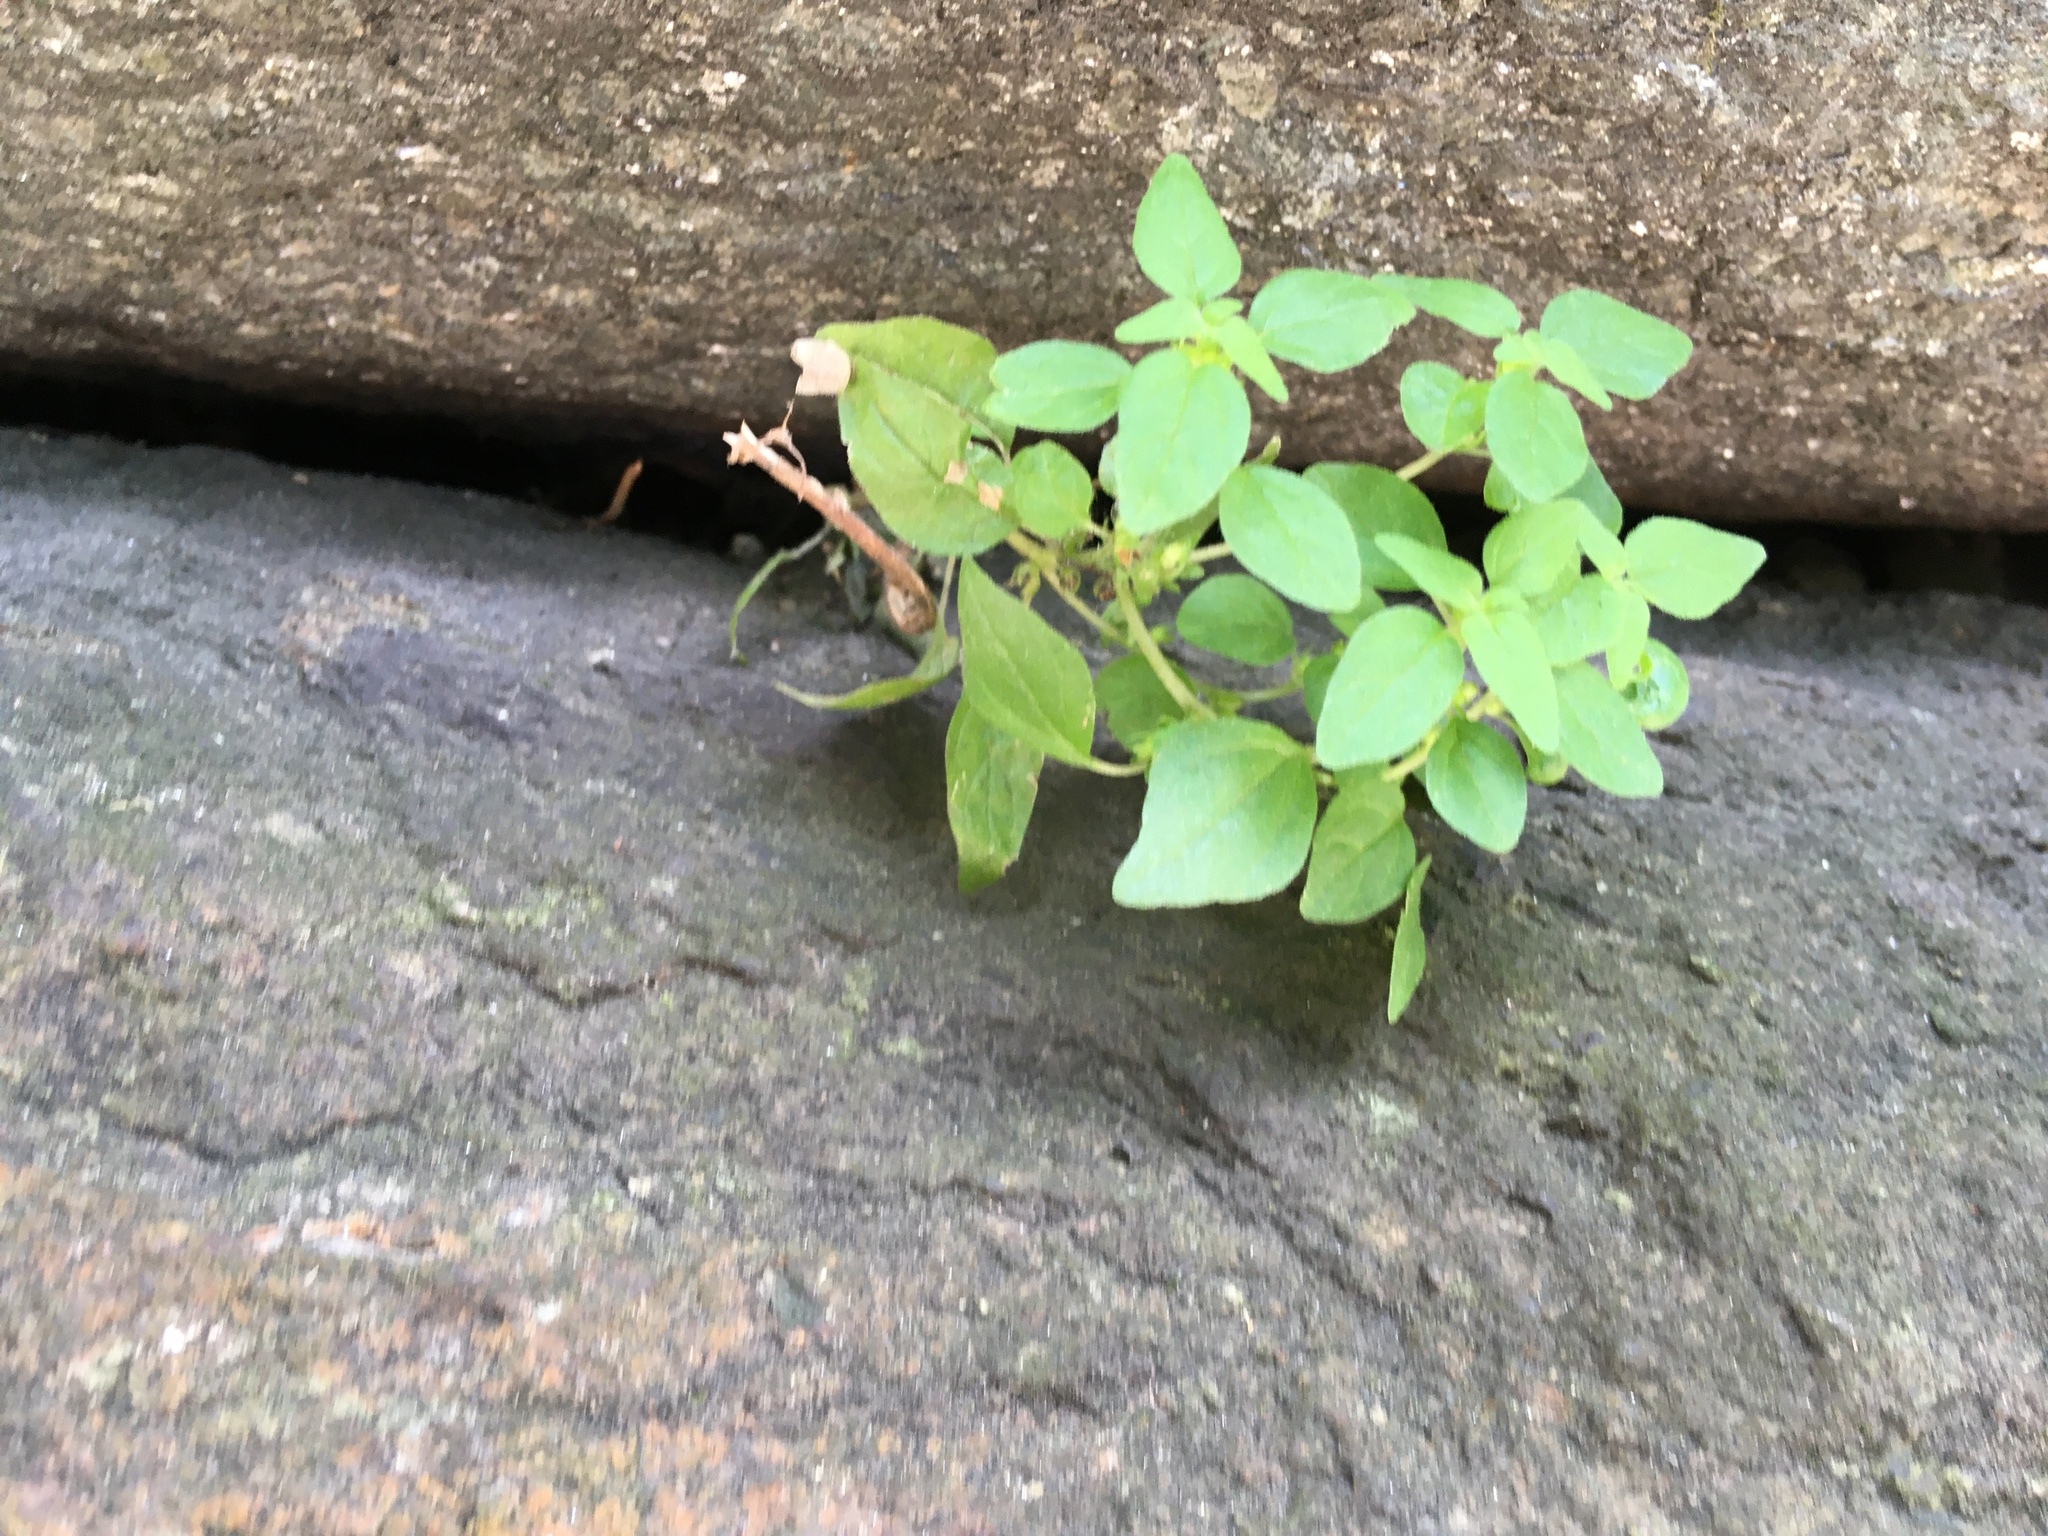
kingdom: Plantae
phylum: Tracheophyta
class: Magnoliopsida
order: Rosales
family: Urticaceae
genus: Parietaria
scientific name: Parietaria pensylvanica
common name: Pennsylvania pellitory
